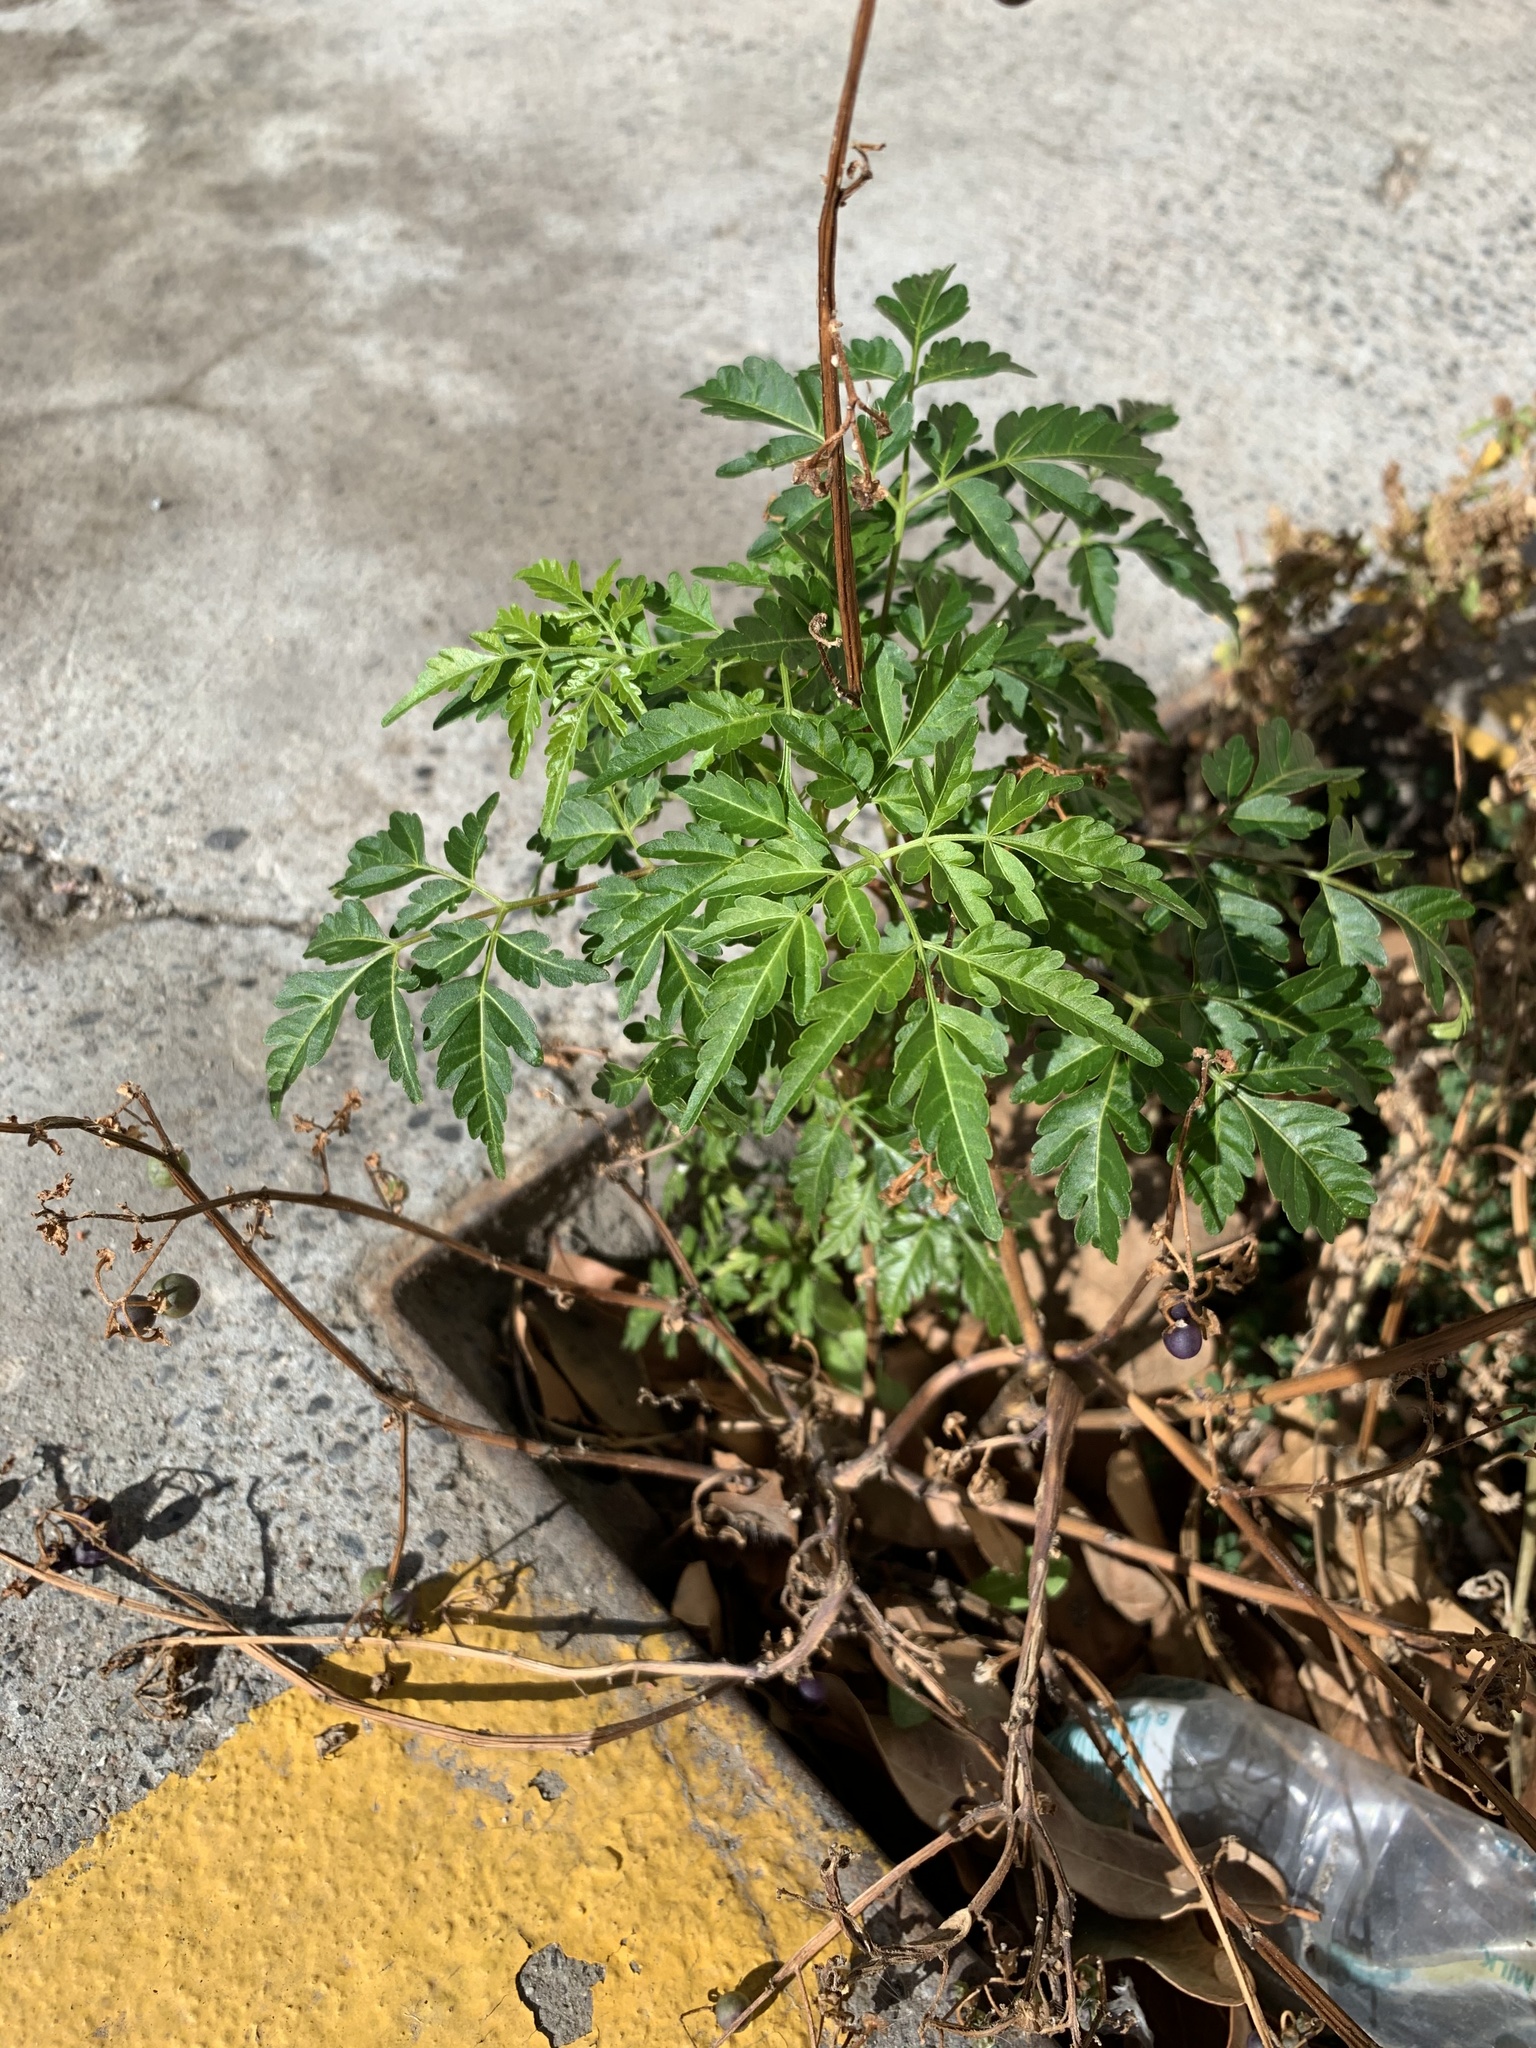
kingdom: Plantae
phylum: Tracheophyta
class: Magnoliopsida
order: Sapindales
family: Meliaceae
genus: Melia
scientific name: Melia azedarach
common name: Chinaberrytree
